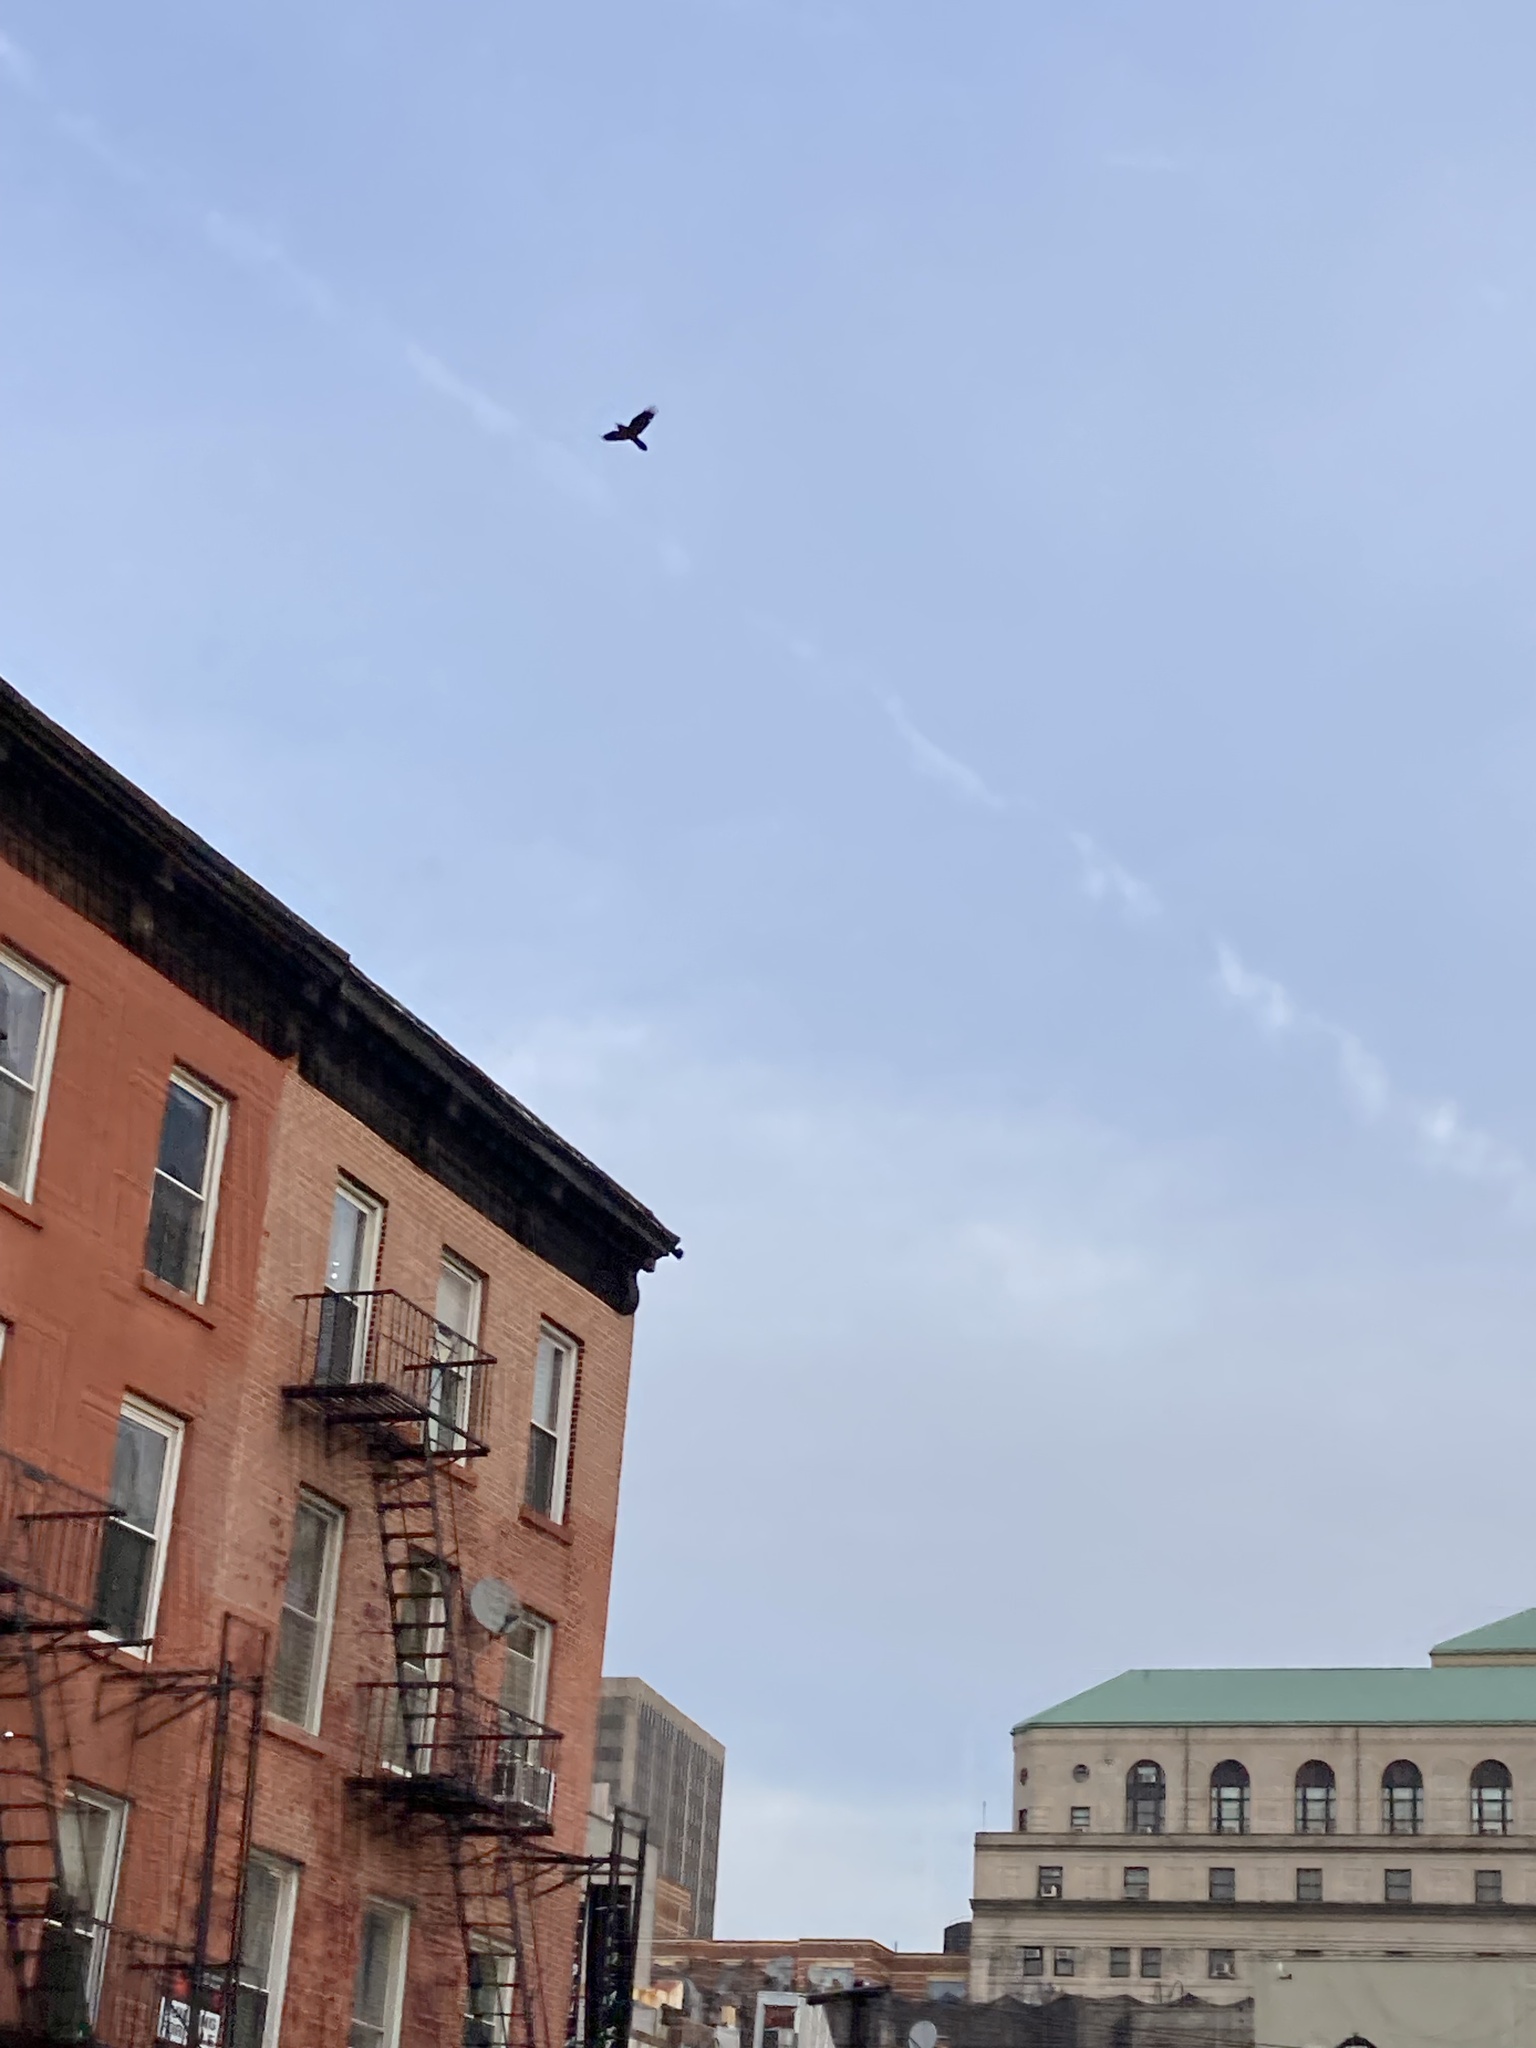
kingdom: Animalia
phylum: Chordata
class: Aves
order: Passeriformes
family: Corvidae
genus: Corvus
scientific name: Corvus corax
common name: Common raven
